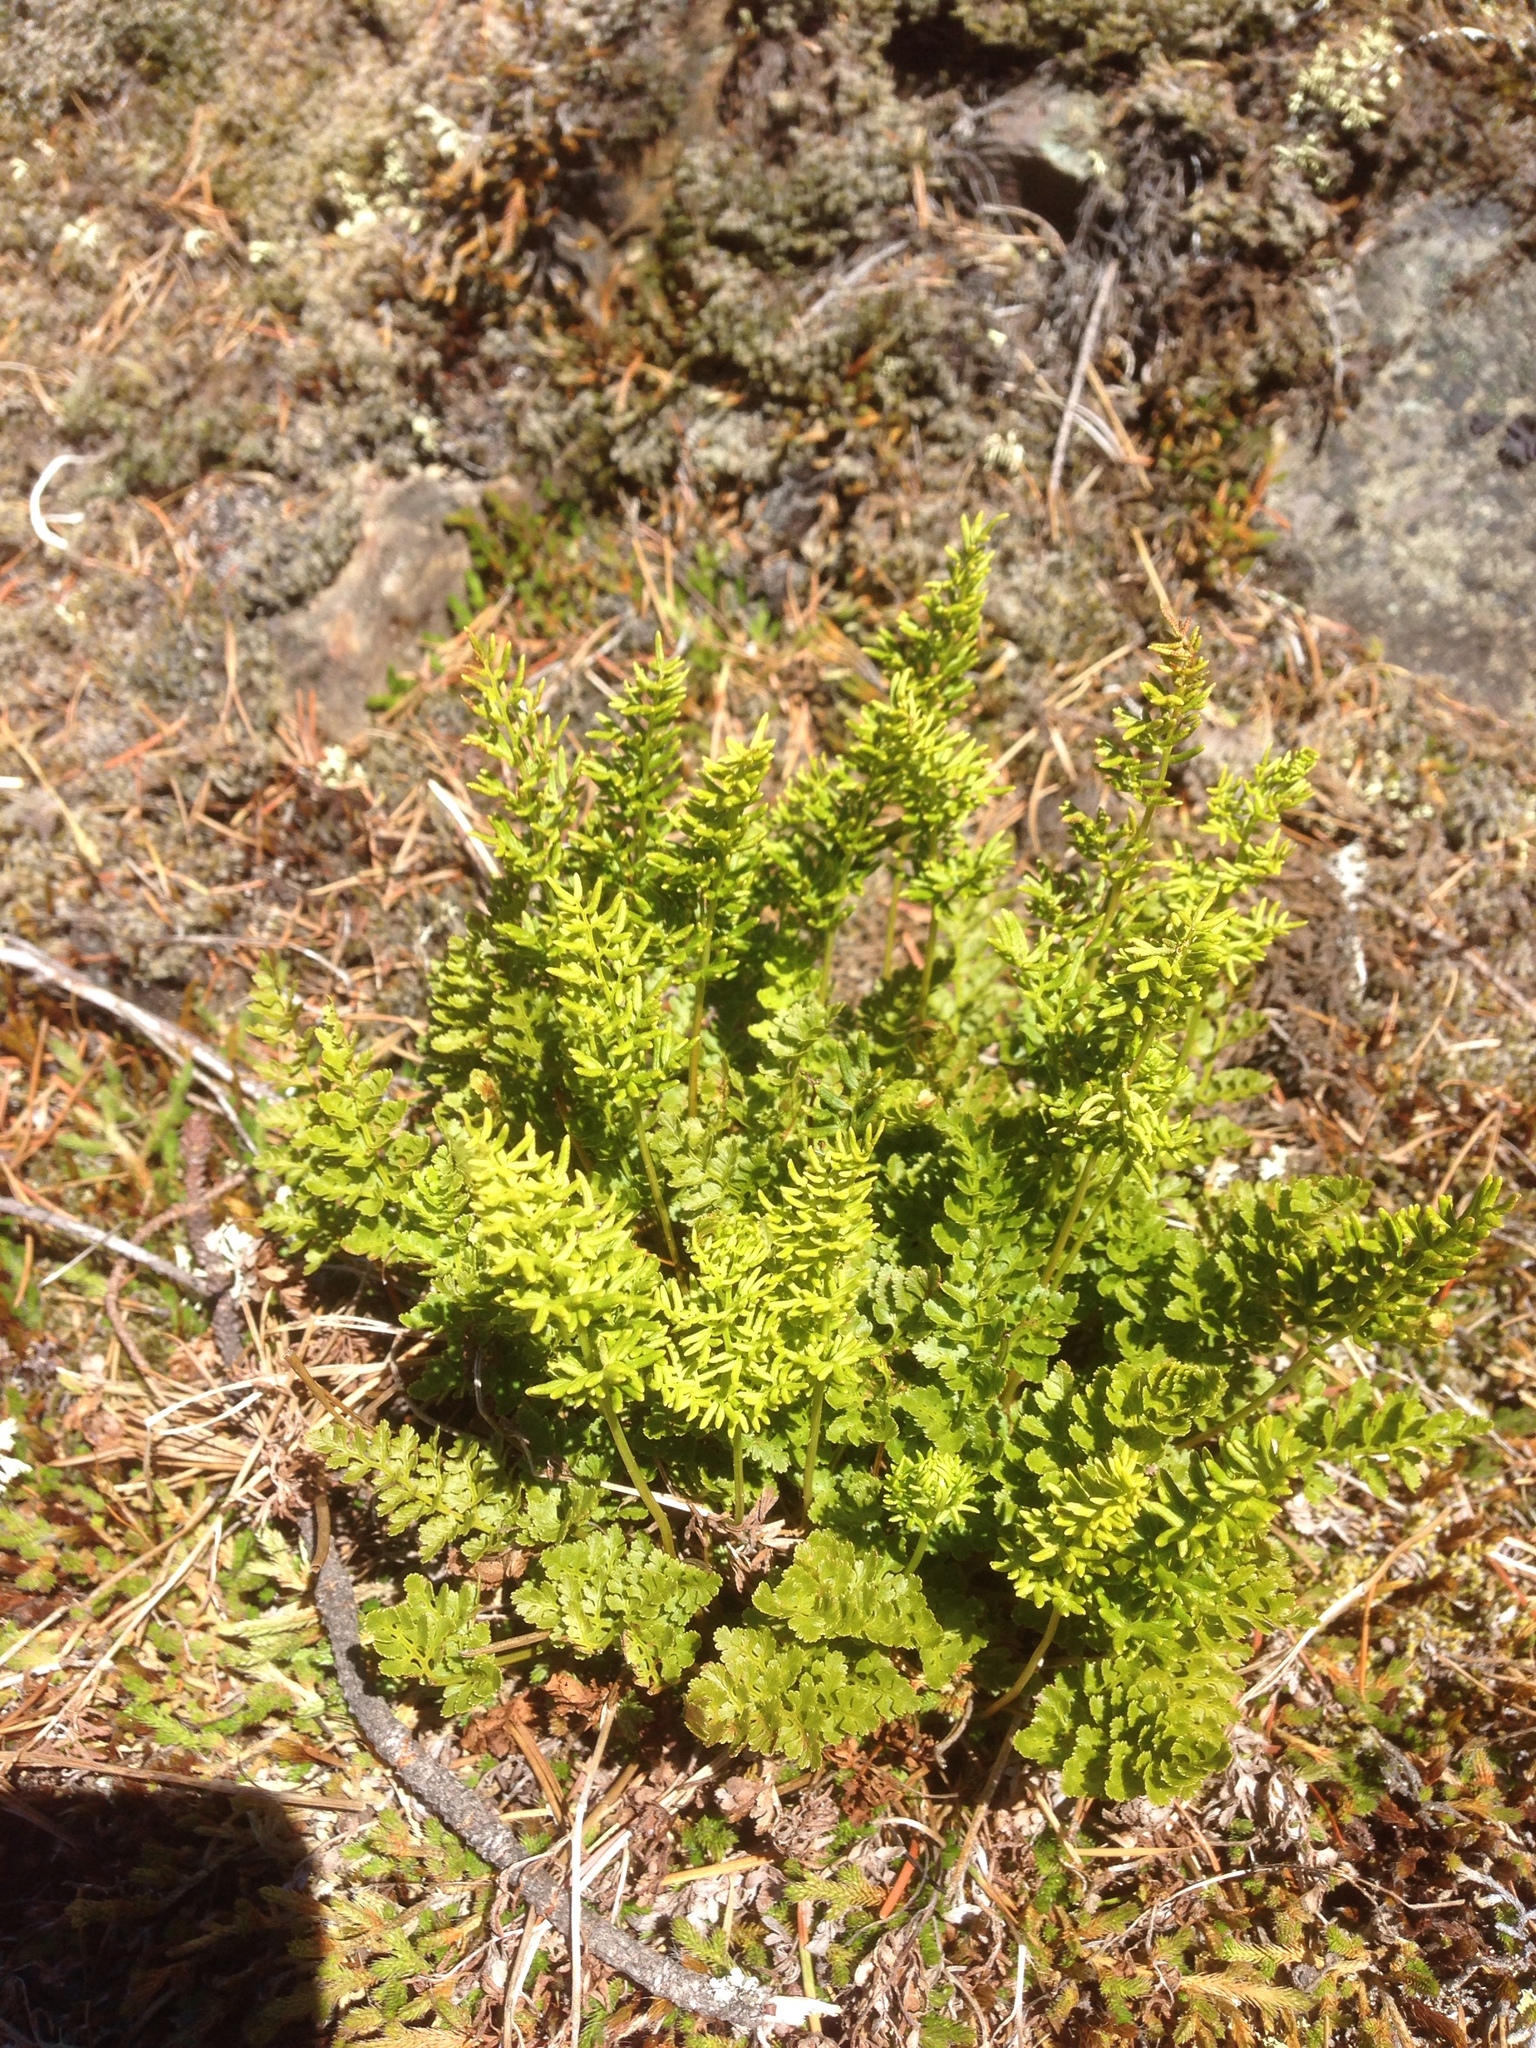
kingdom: Plantae
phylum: Tracheophyta
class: Polypodiopsida
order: Polypodiales
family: Pteridaceae
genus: Cryptogramma
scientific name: Cryptogramma acrostichoides
